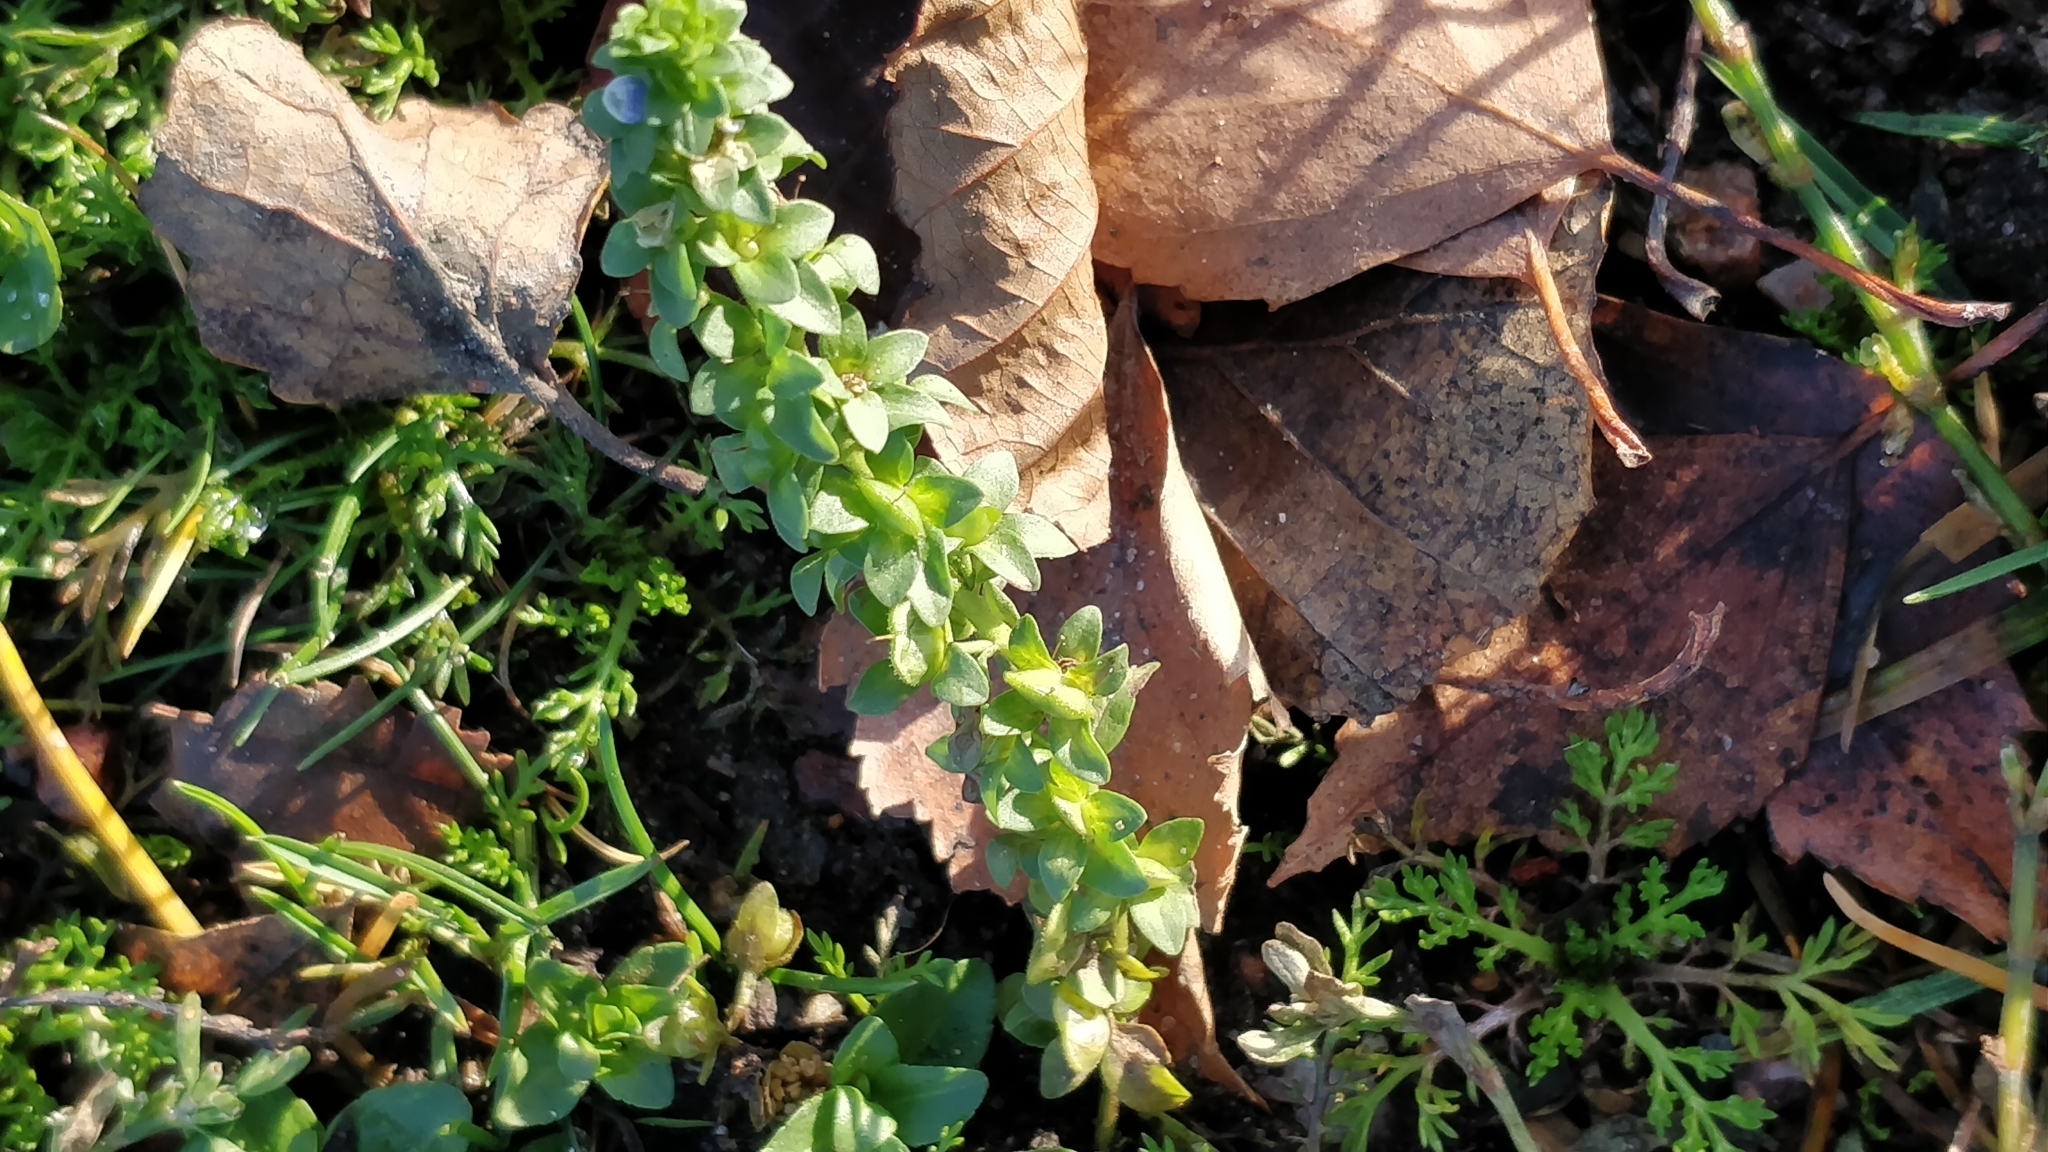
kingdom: Plantae
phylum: Tracheophyta
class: Magnoliopsida
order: Lamiales
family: Plantaginaceae
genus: Veronica
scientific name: Veronica serpyllifolia
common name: Thyme-leaved speedwell
